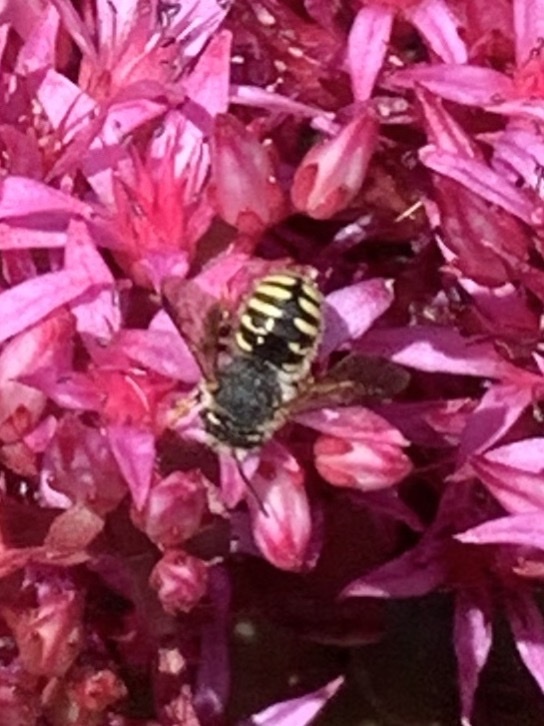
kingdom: Animalia
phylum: Arthropoda
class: Insecta
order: Hymenoptera
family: Megachilidae
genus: Anthidium
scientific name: Anthidium oblongatum
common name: Oblong wool carder bee
